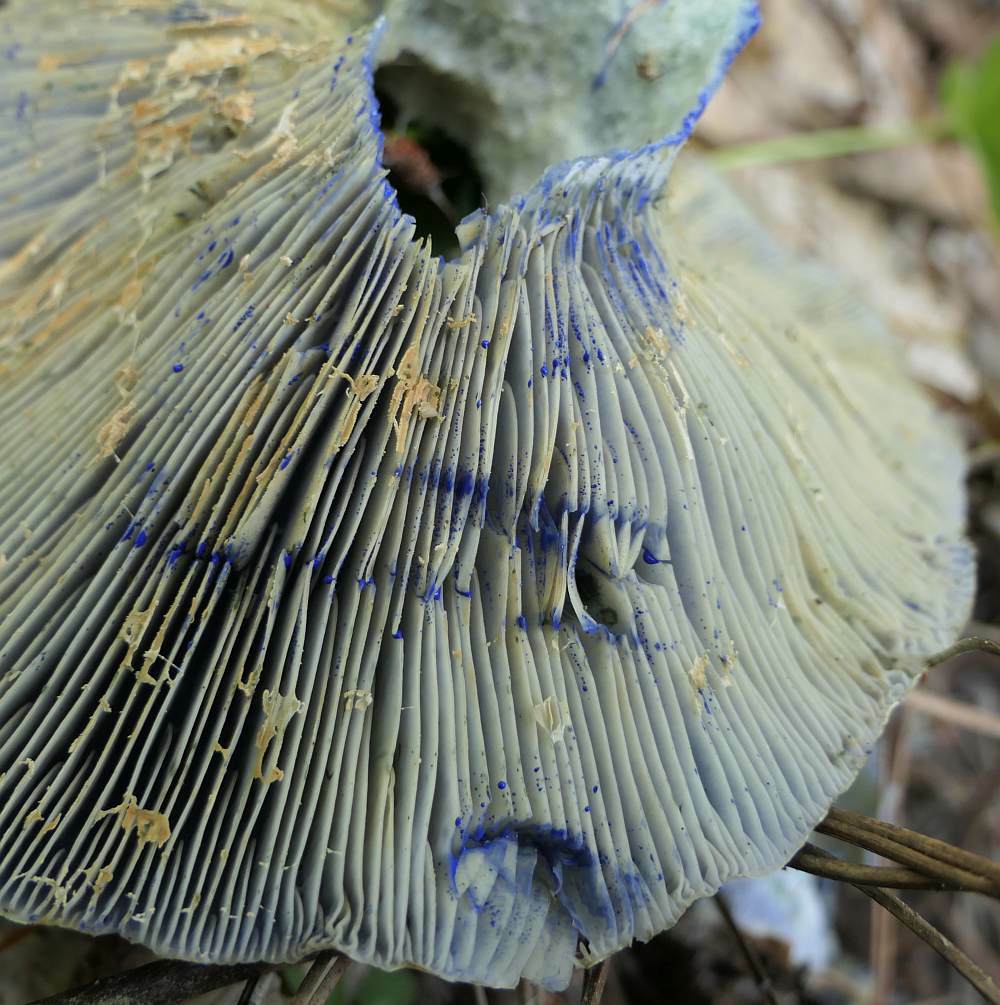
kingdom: Fungi
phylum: Basidiomycota
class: Agaricomycetes
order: Russulales
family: Russulaceae
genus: Lactarius
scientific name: Lactarius indigo
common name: Indigo milk cap
